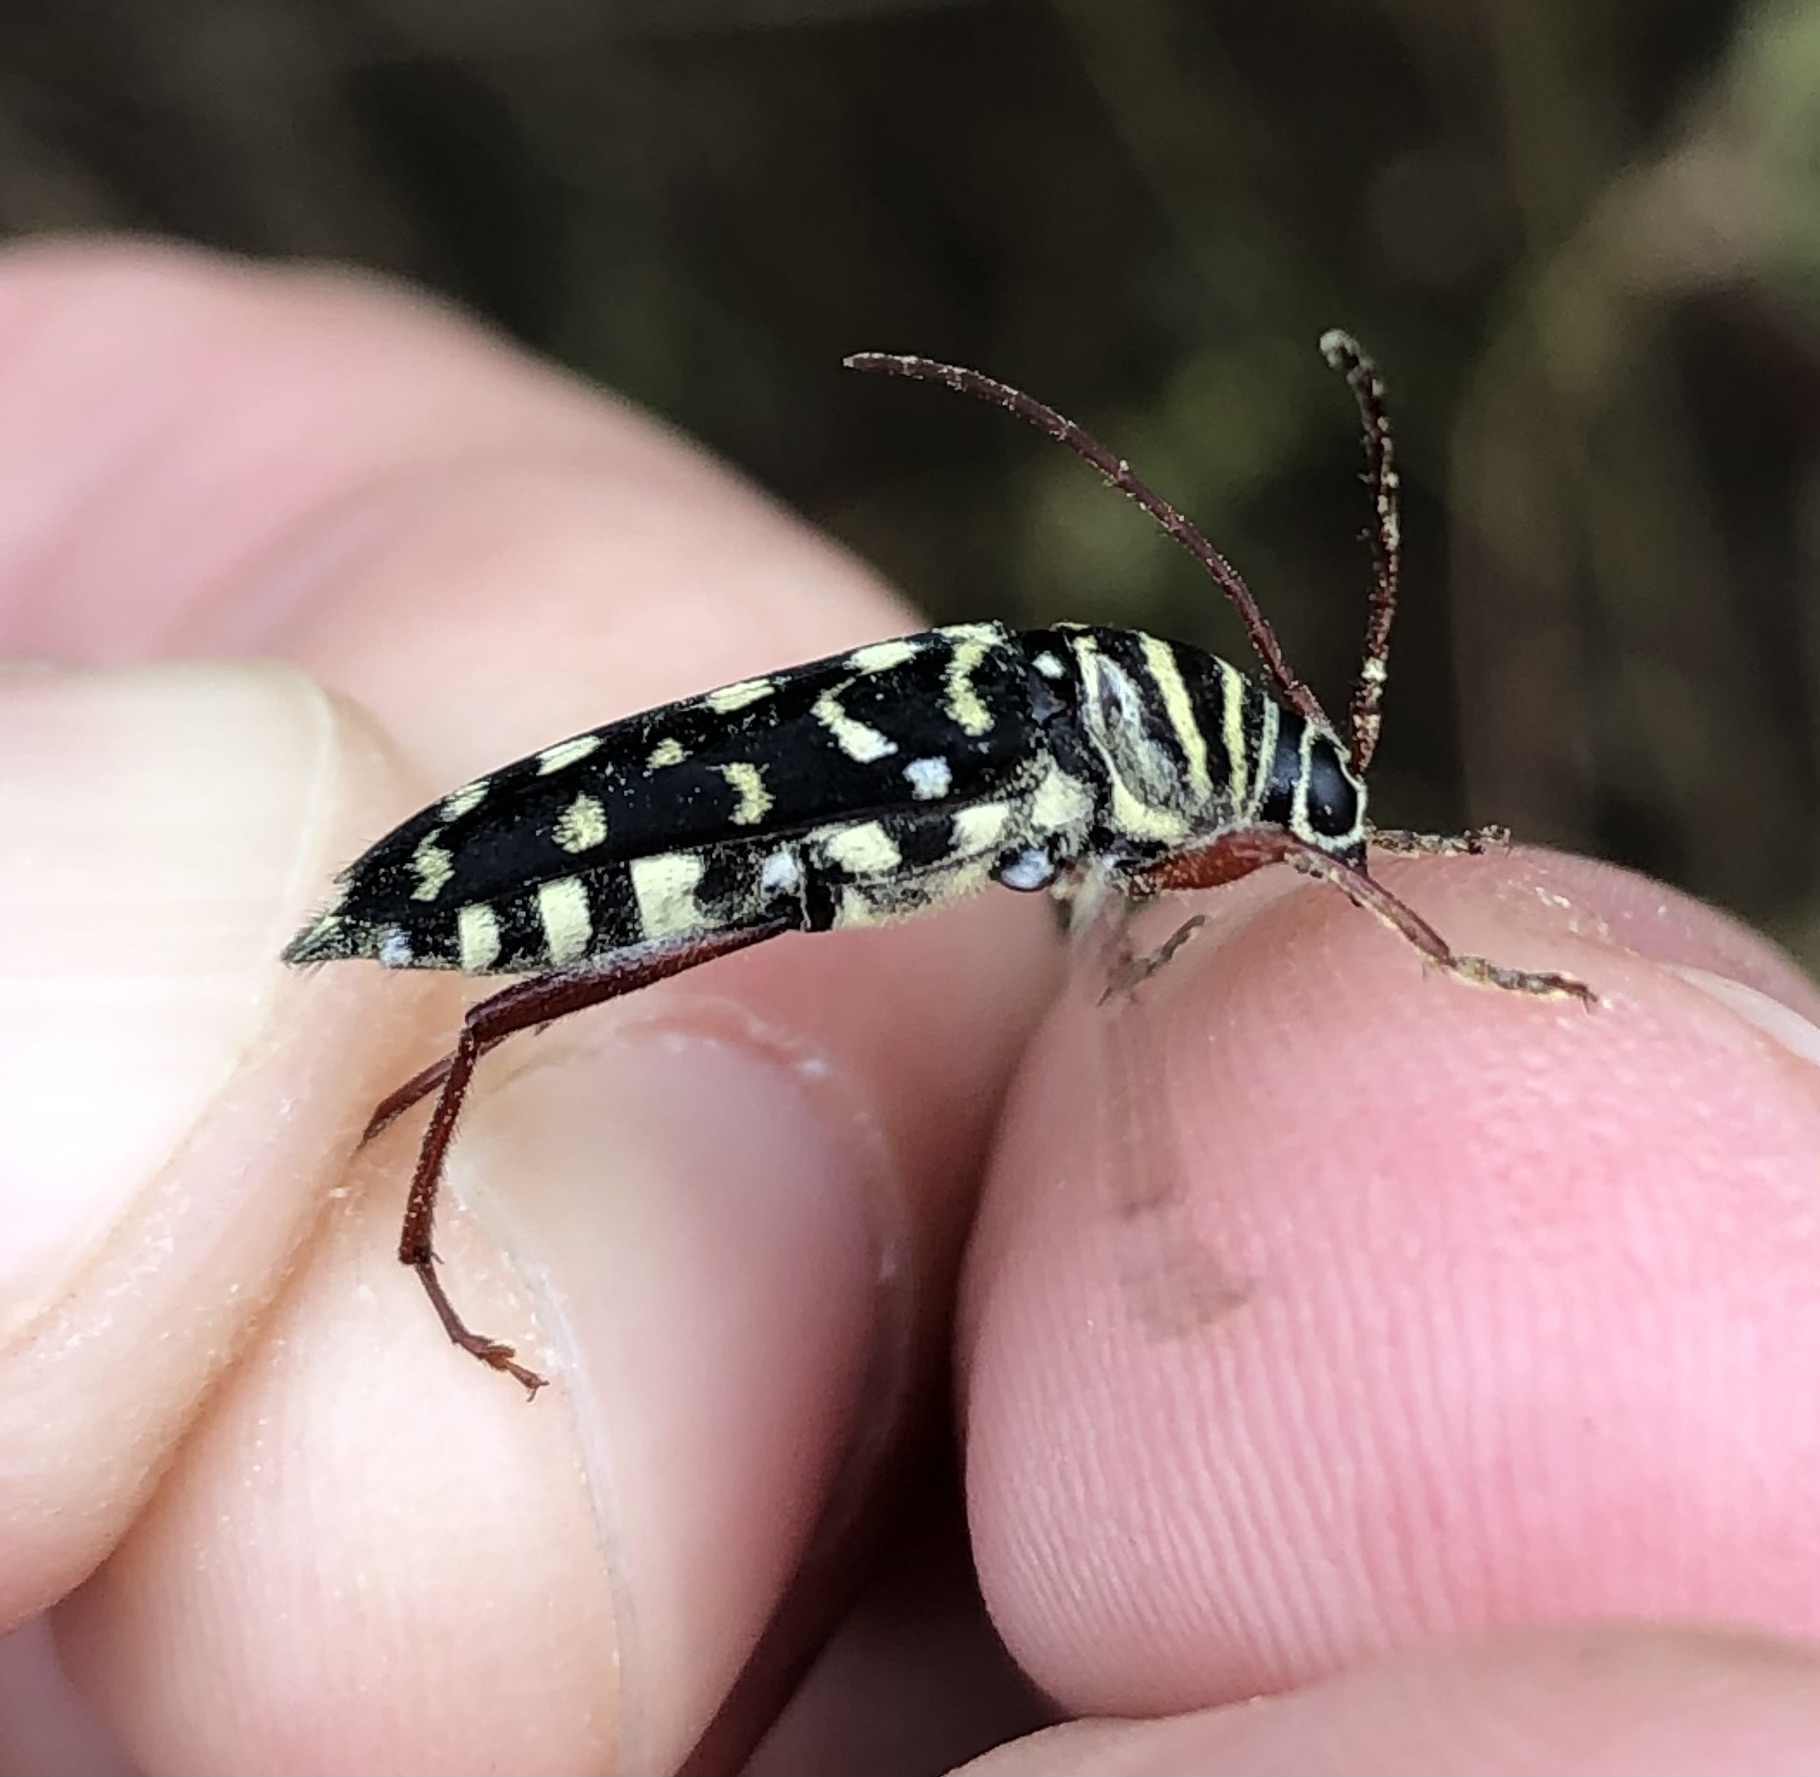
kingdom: Animalia
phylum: Arthropoda
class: Insecta
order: Coleoptera
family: Cerambycidae
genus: Placosternus
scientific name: Placosternus difficilis
